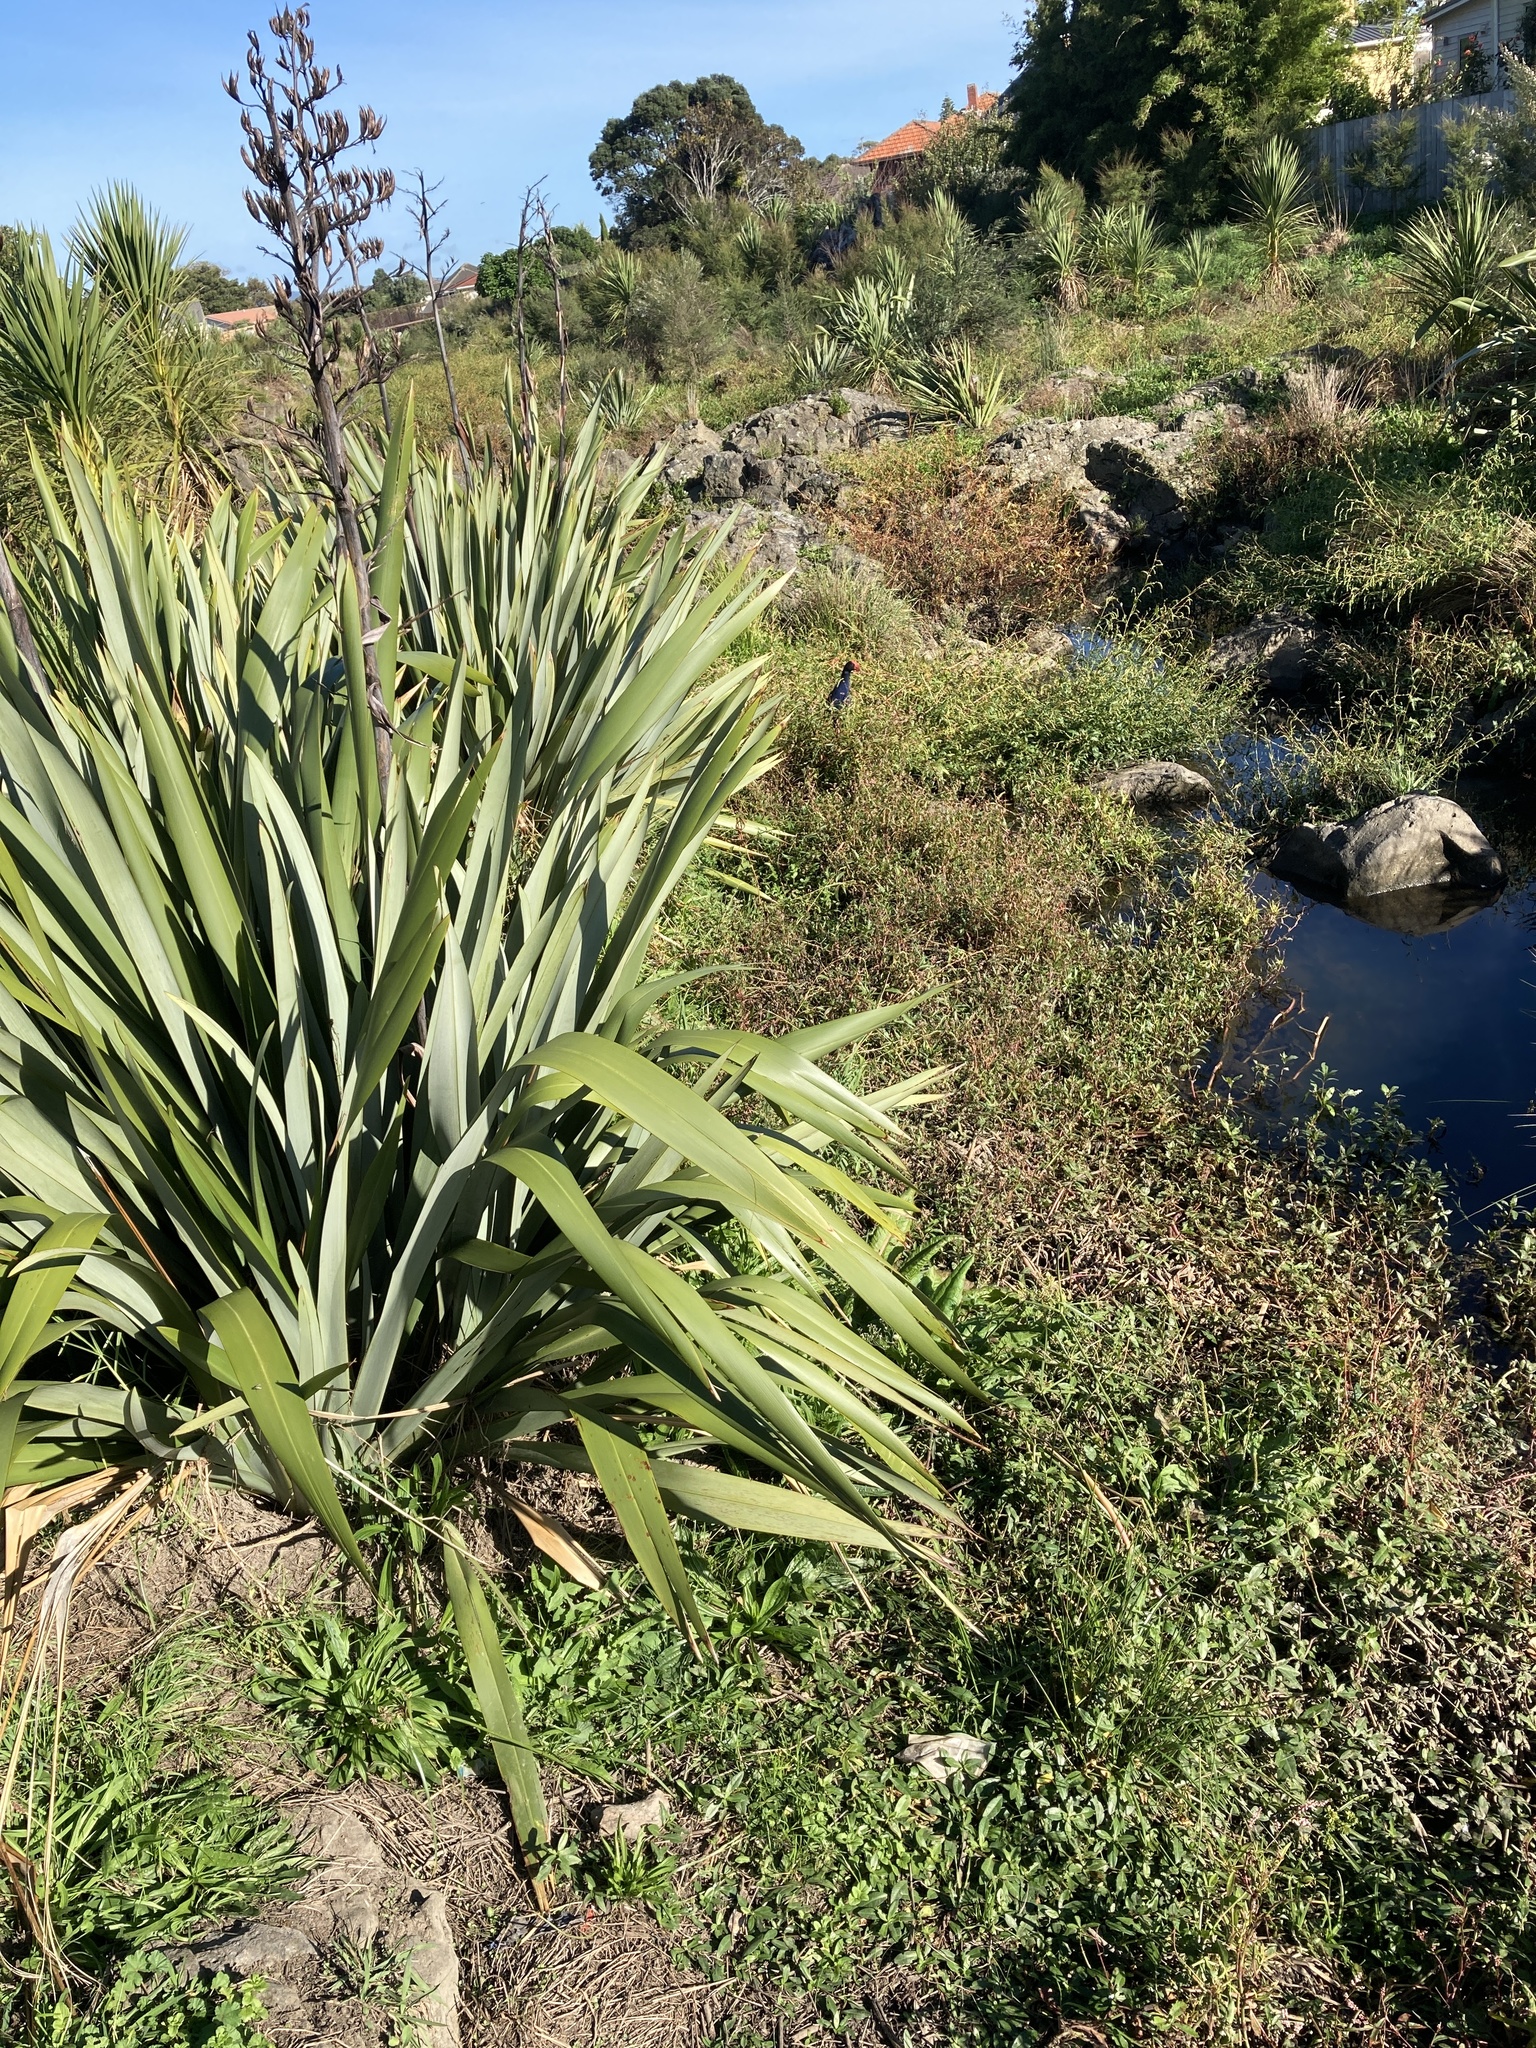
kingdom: Plantae
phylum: Tracheophyta
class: Liliopsida
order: Asparagales
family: Asparagaceae
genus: Cordyline
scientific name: Cordyline australis
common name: Cabbage-palm
